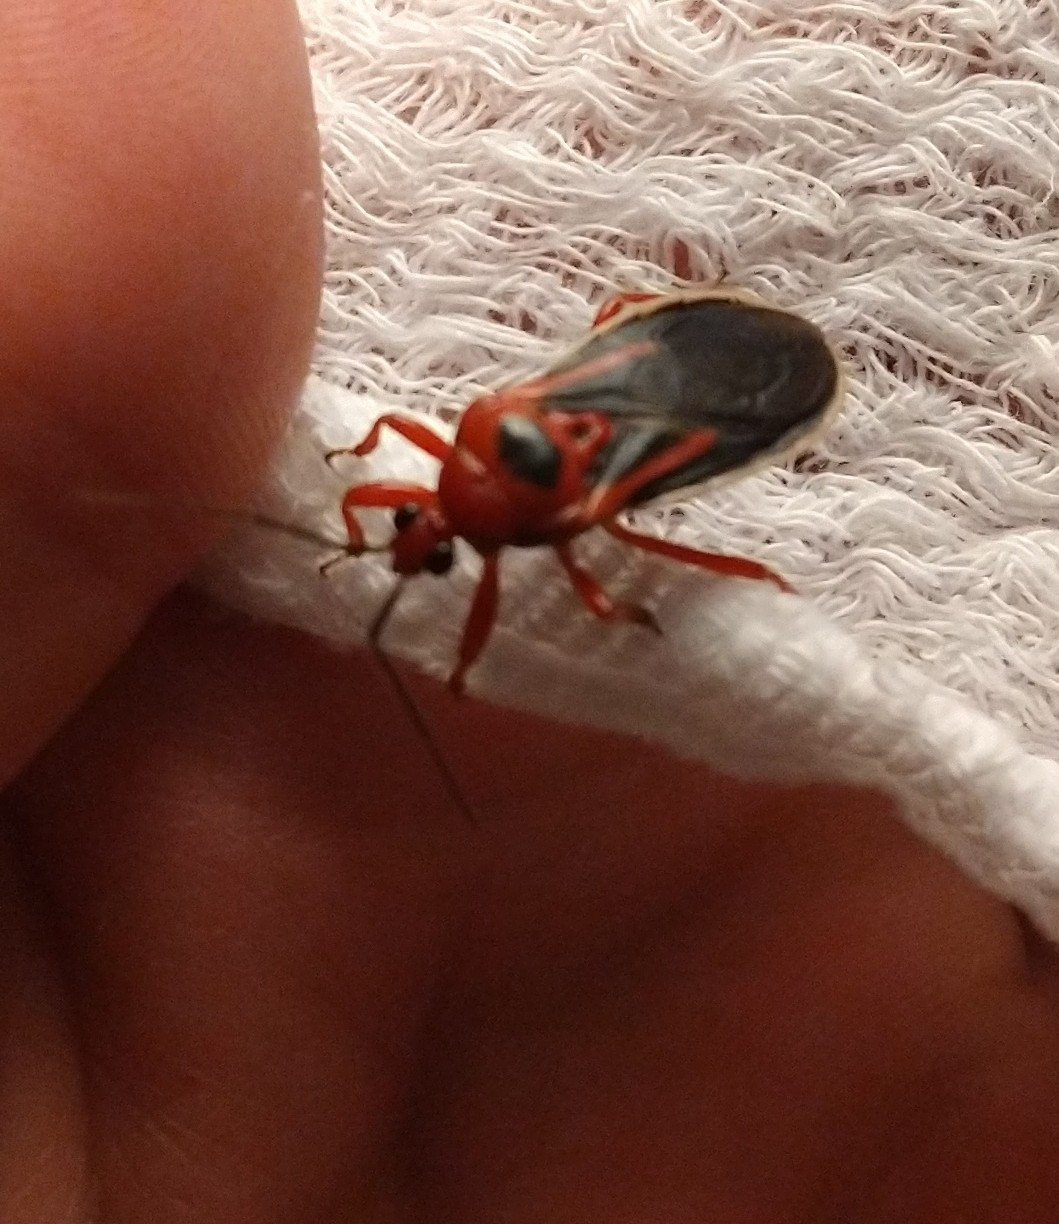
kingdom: Animalia
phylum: Arthropoda
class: Insecta
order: Hemiptera
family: Reduviidae
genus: Brontostoma
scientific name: Brontostoma discus
